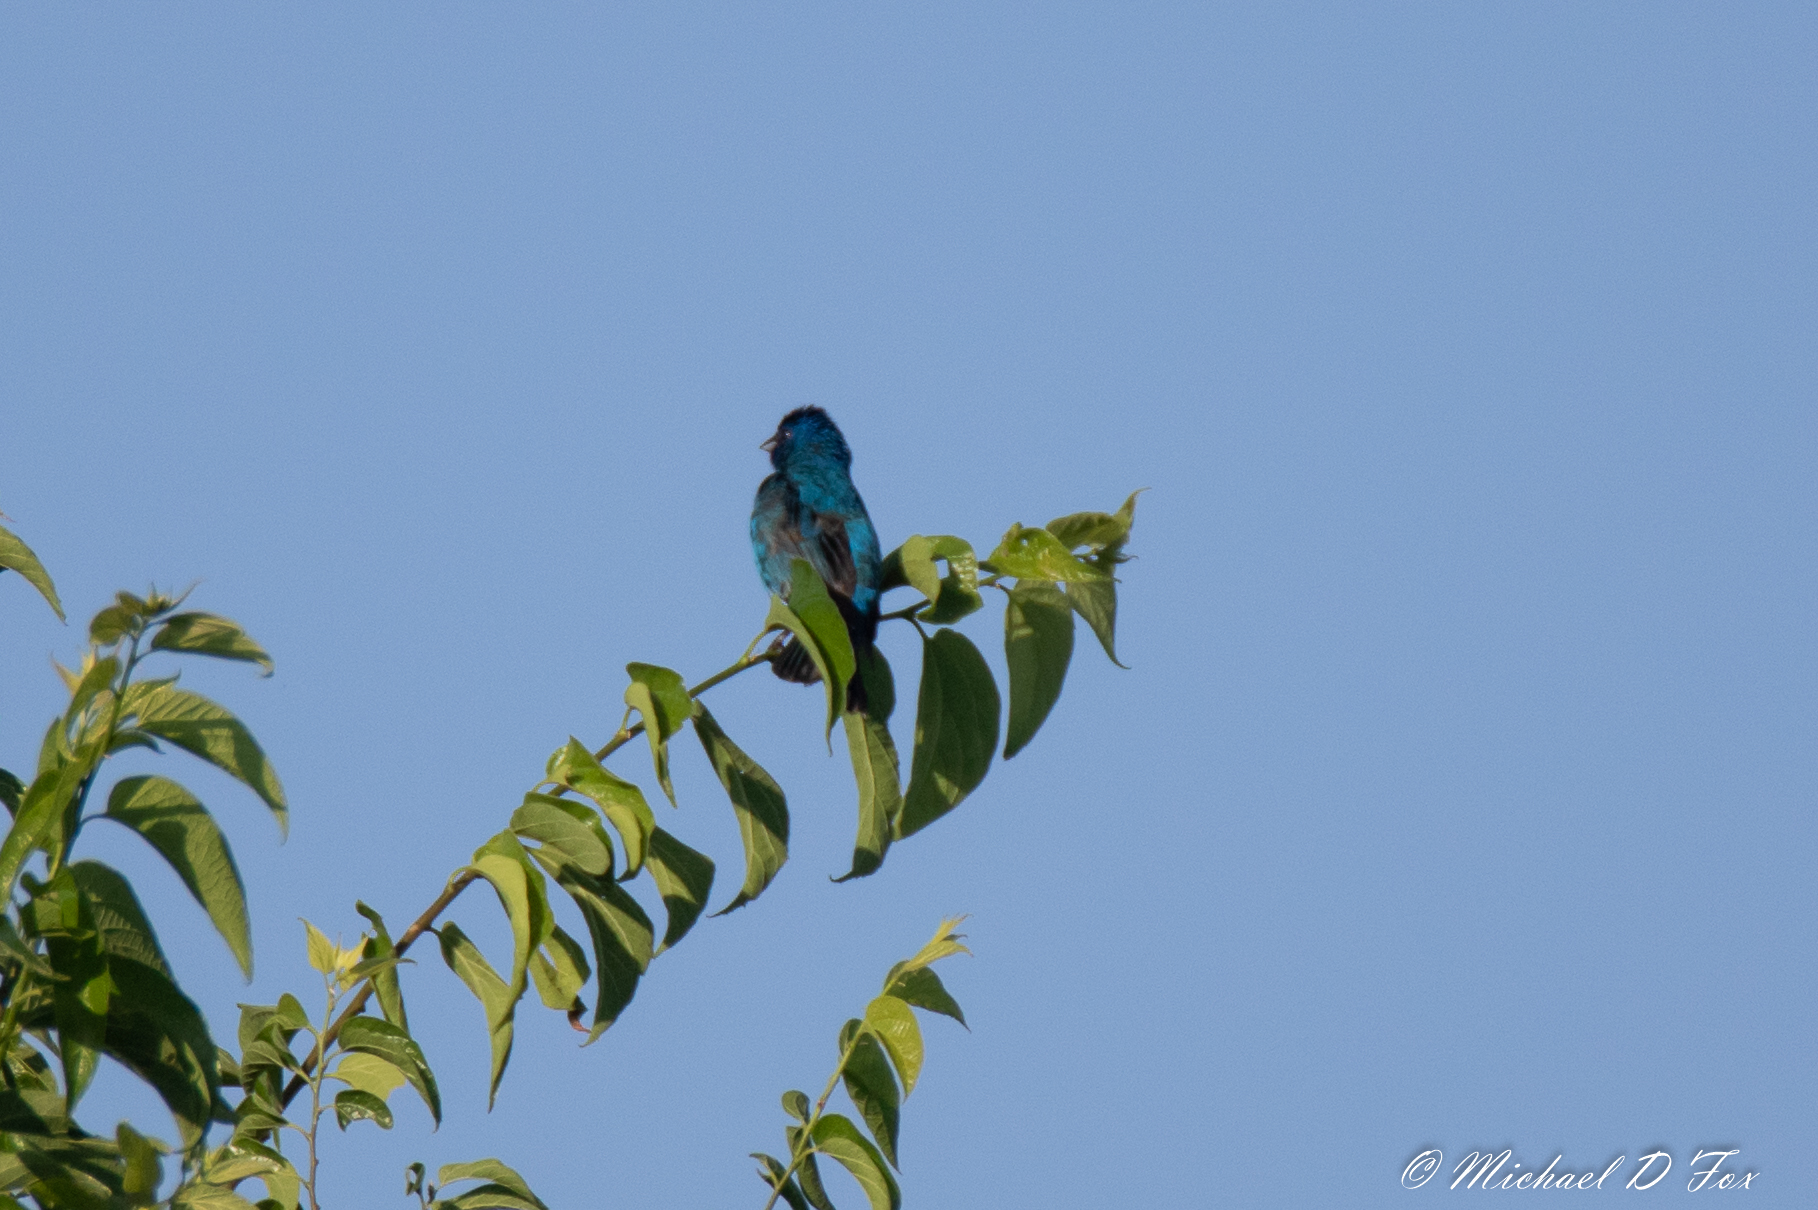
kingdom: Animalia
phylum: Chordata
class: Aves
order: Passeriformes
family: Cardinalidae
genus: Passerina
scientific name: Passerina cyanea
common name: Indigo bunting
